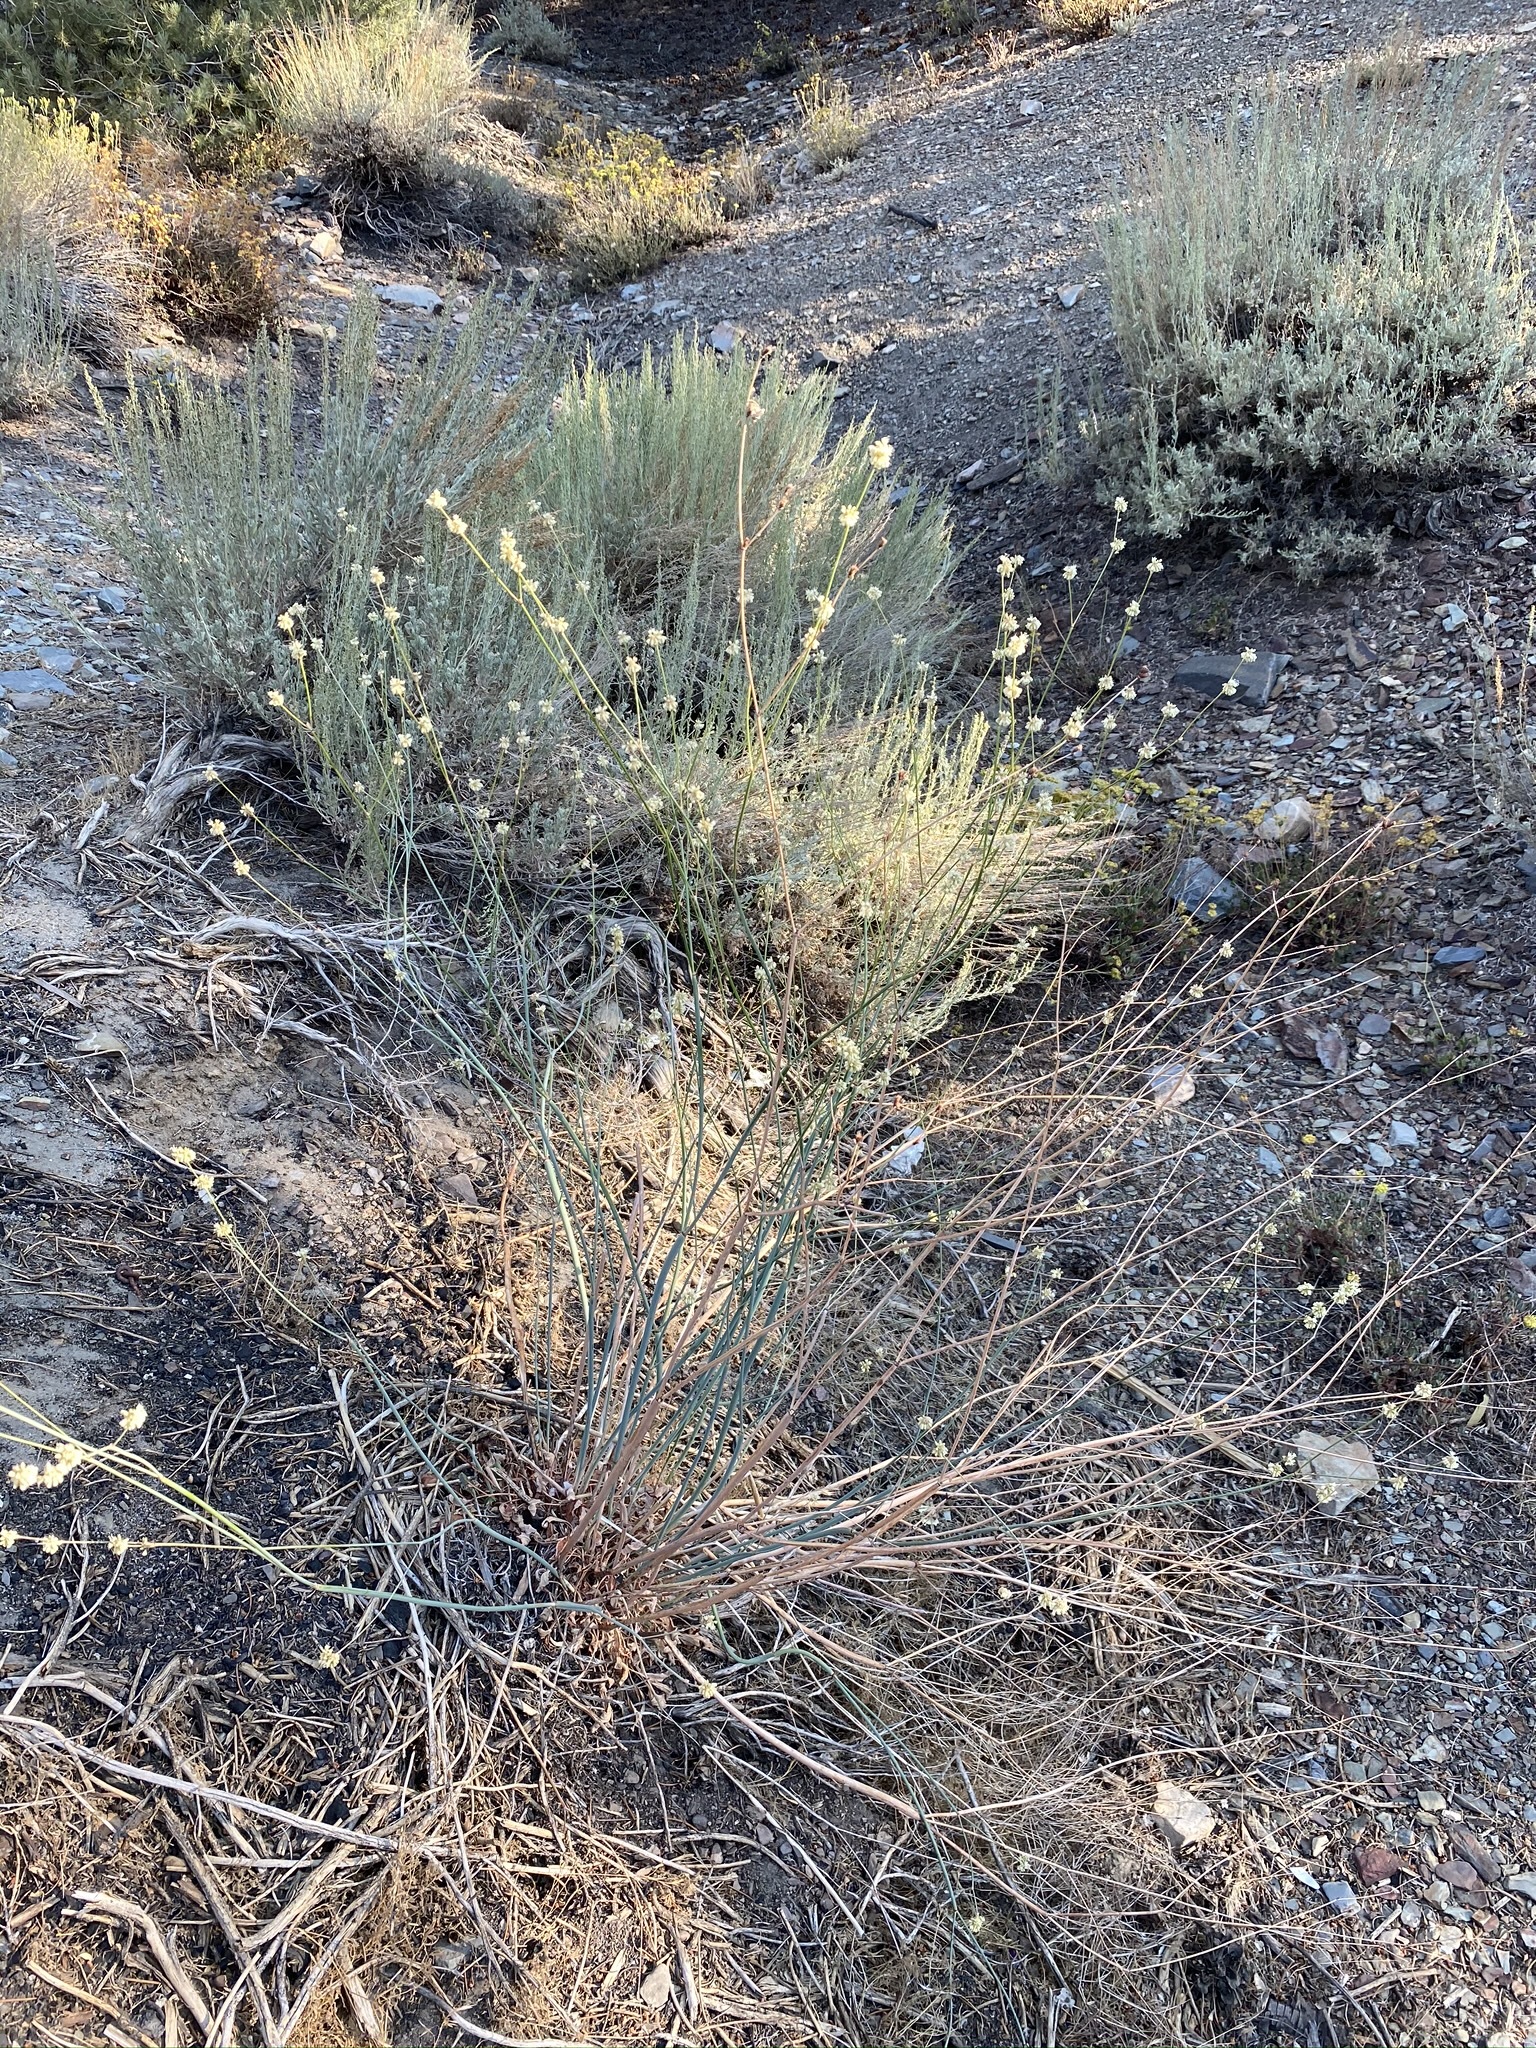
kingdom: Plantae
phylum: Tracheophyta
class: Magnoliopsida
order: Caryophyllales
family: Polygonaceae
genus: Eriogonum
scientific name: Eriogonum nudum
